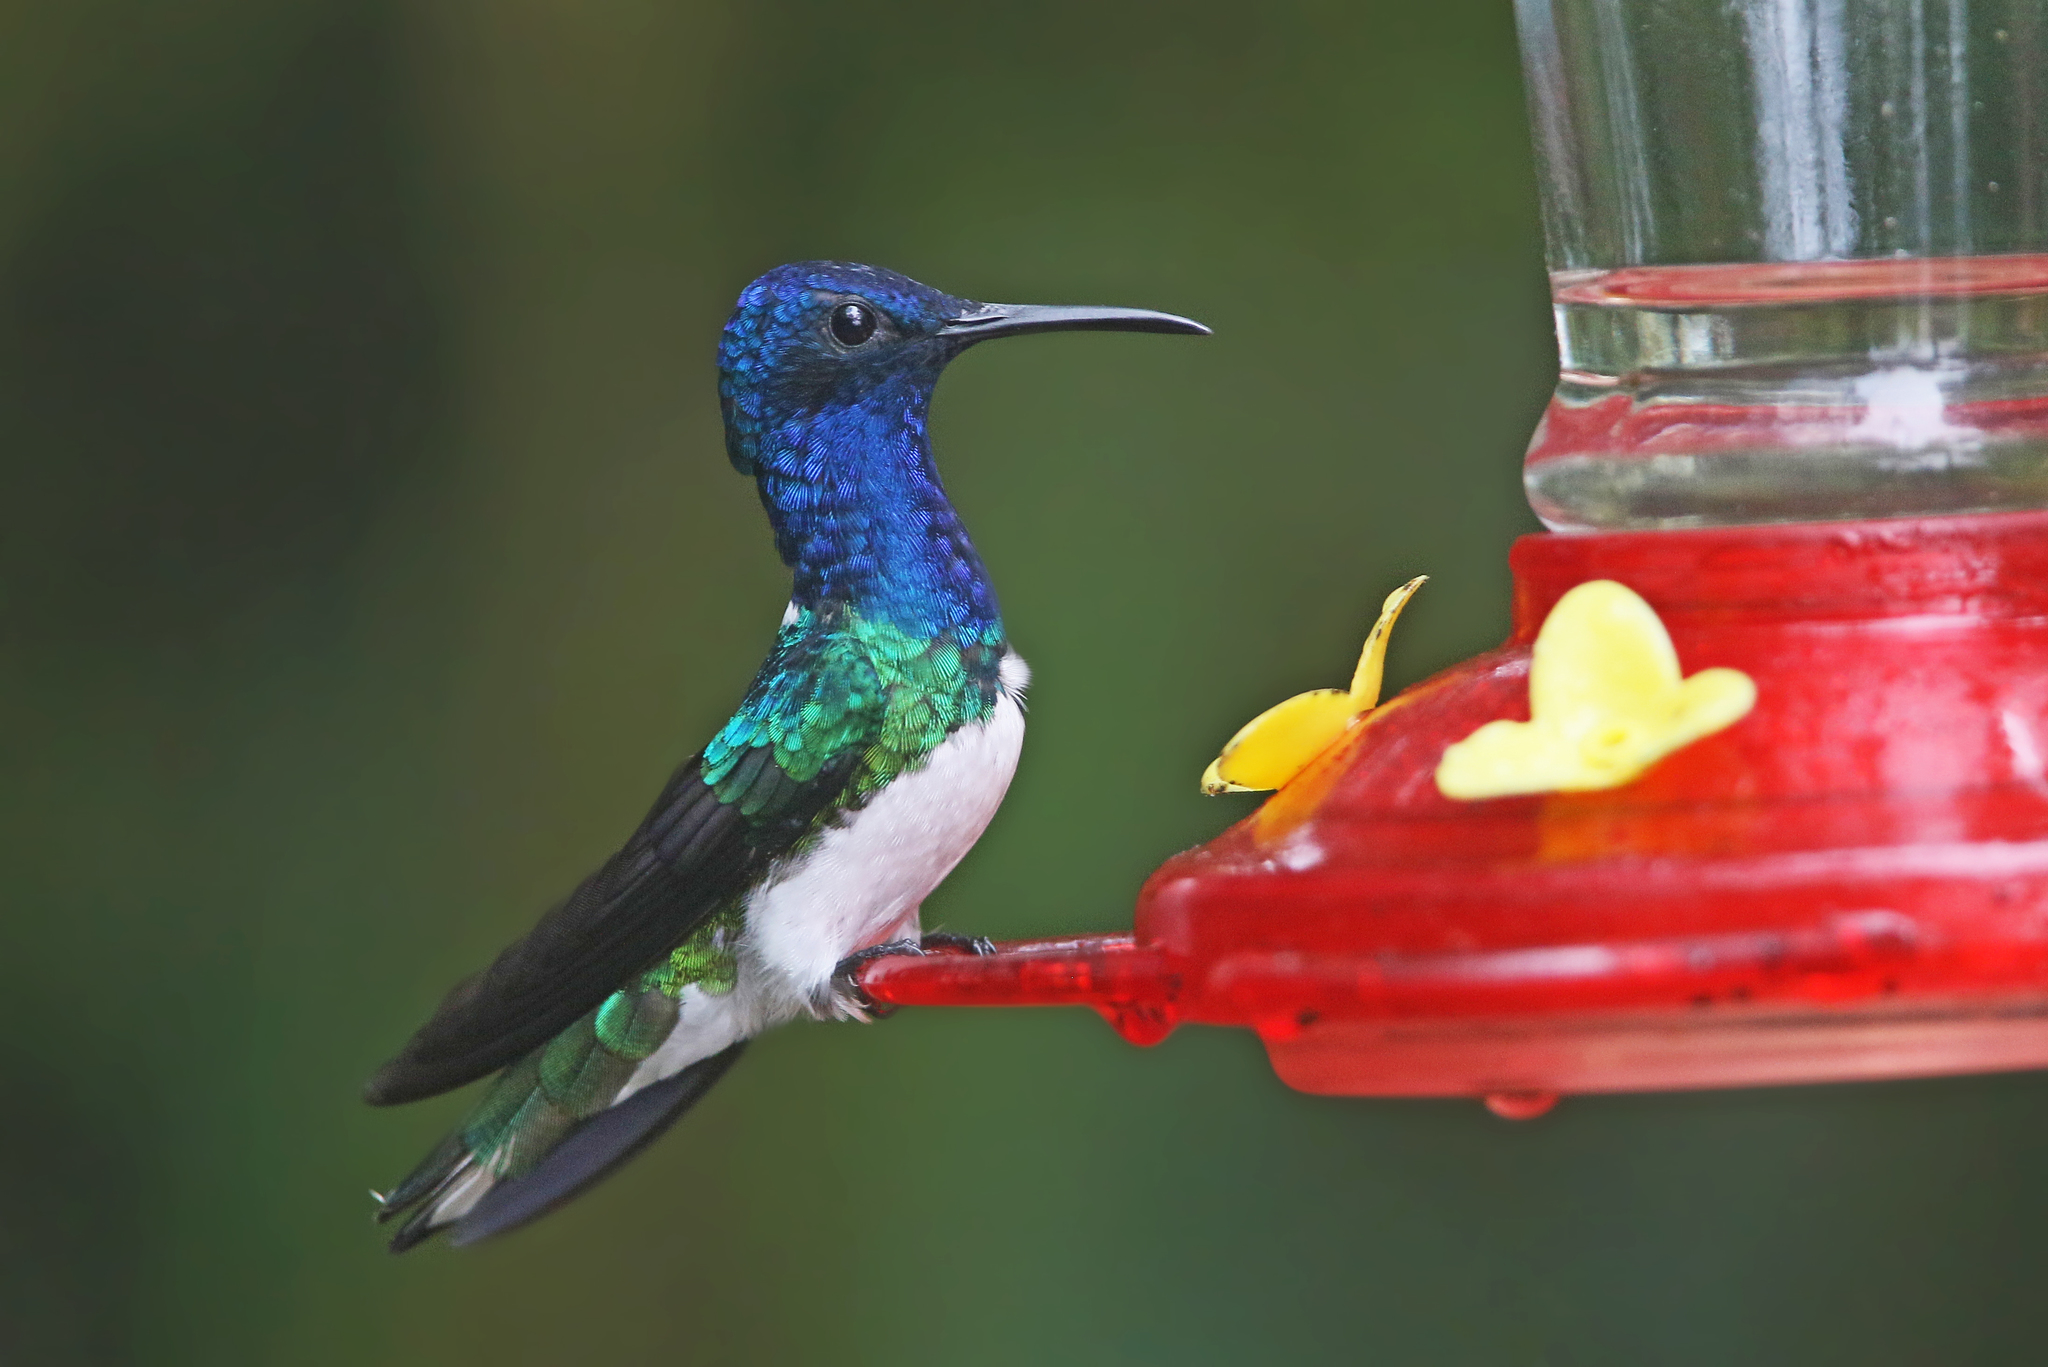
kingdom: Animalia
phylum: Chordata
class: Aves
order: Apodiformes
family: Trochilidae
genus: Florisuga
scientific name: Florisuga mellivora
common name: White-necked jacobin
